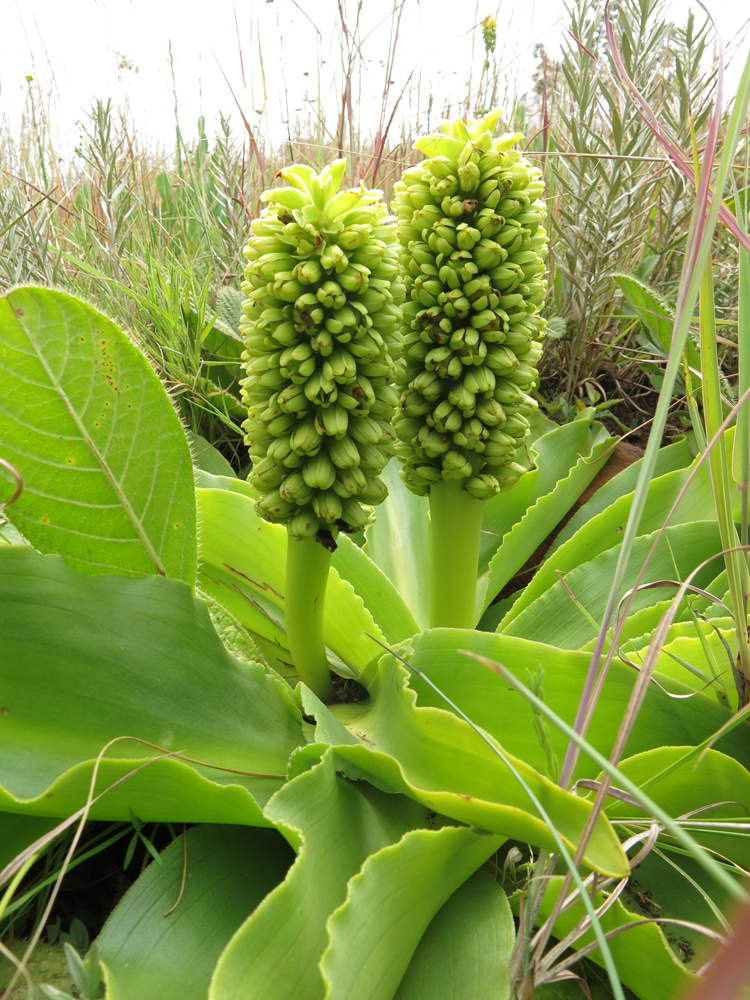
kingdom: Plantae
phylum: Tracheophyta
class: Liliopsida
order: Asparagales
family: Asparagaceae
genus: Eucomis
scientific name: Eucomis autumnalis
